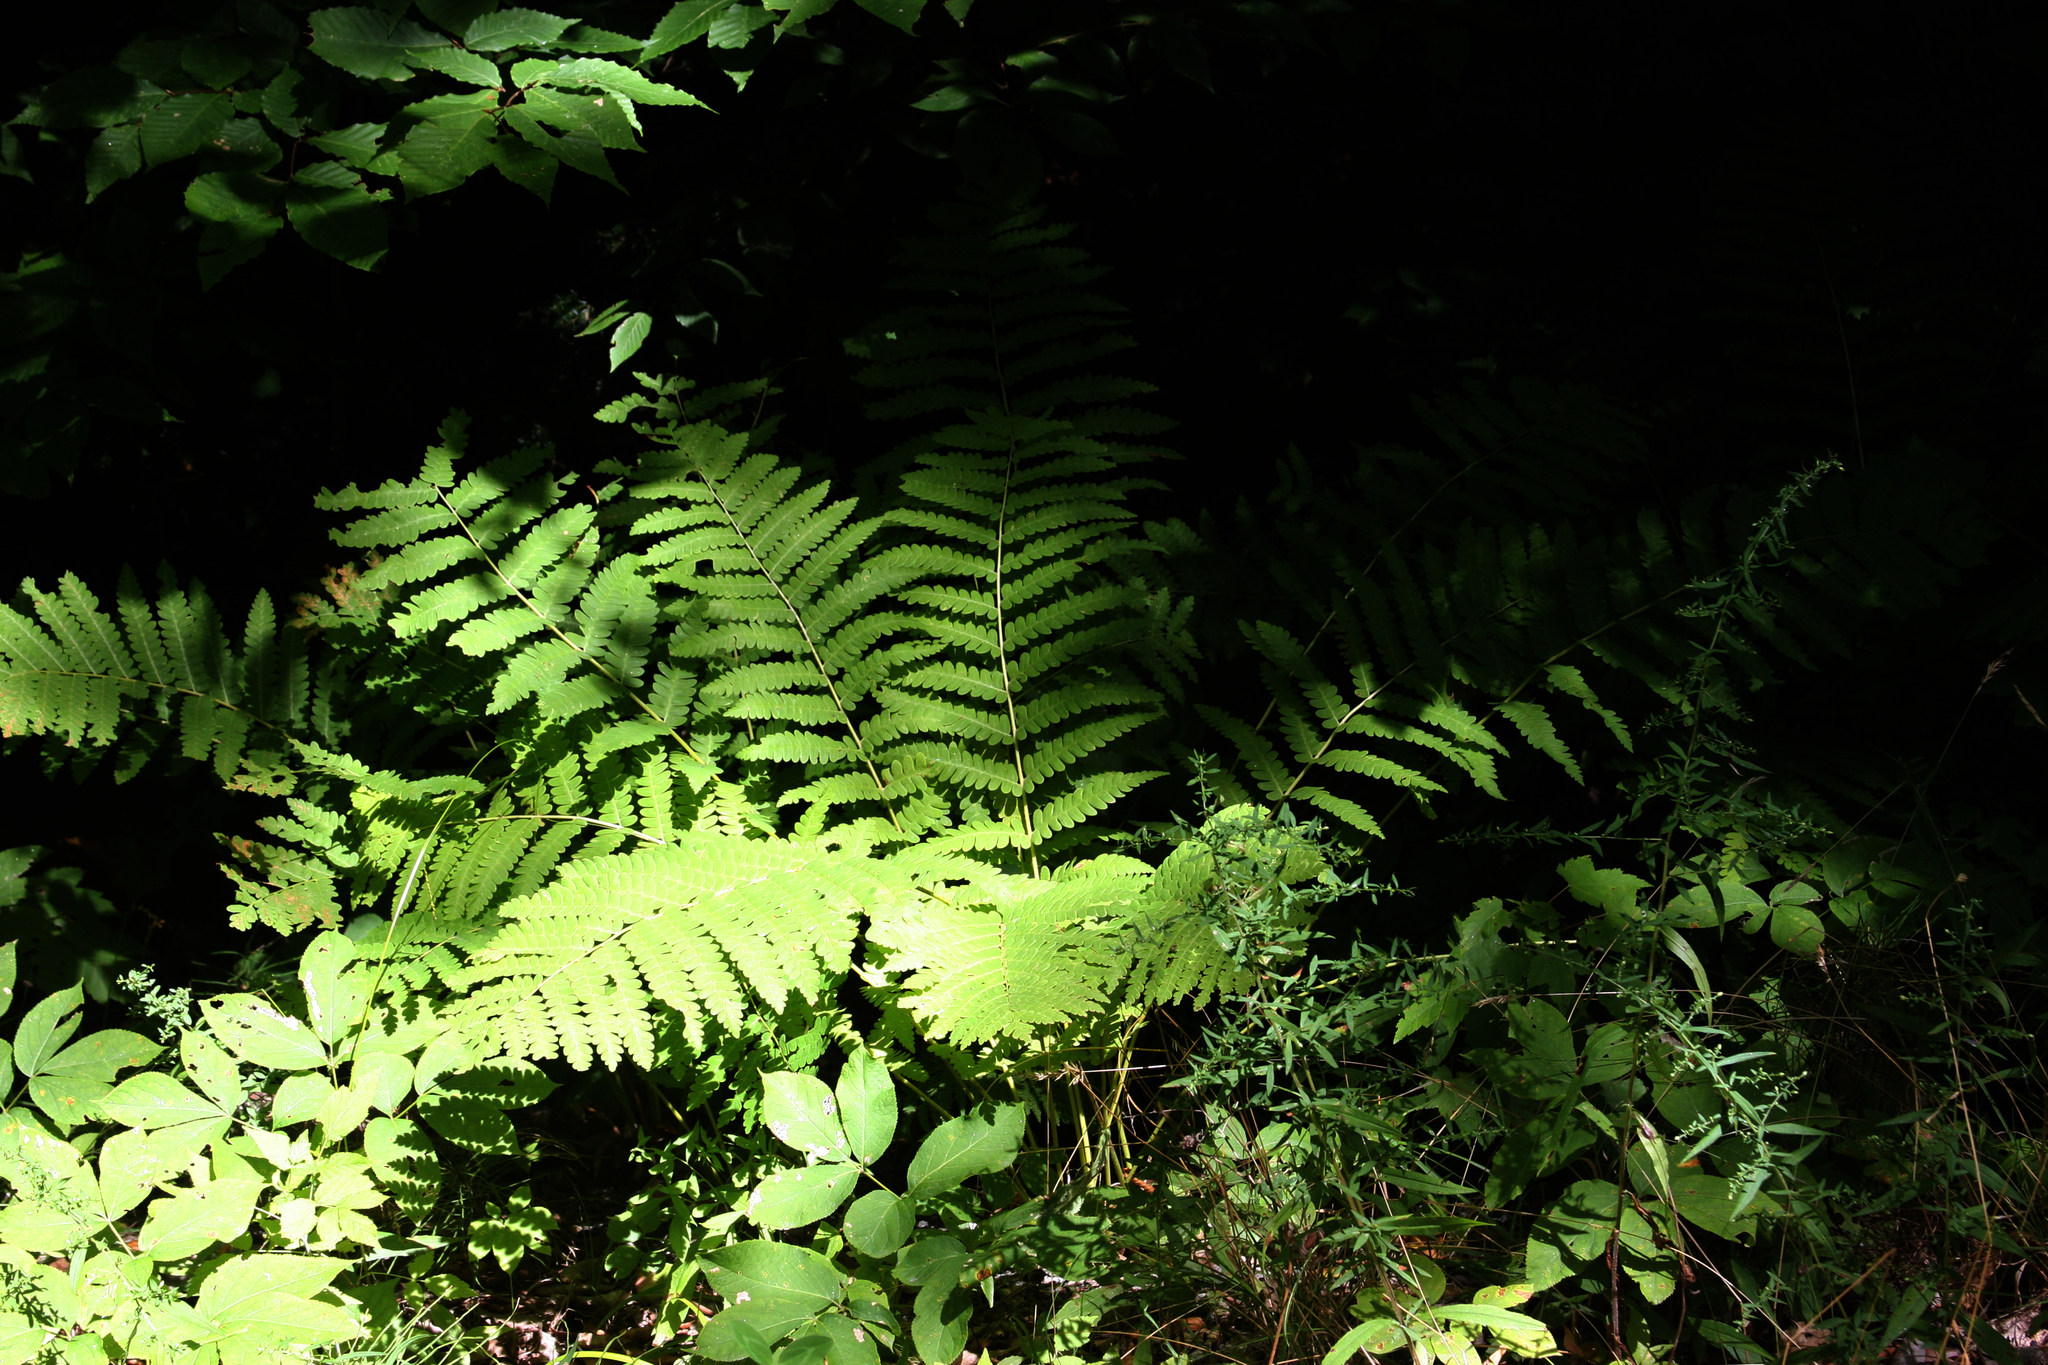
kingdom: Plantae
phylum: Tracheophyta
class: Polypodiopsida
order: Osmundales
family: Osmundaceae
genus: Claytosmunda
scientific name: Claytosmunda claytoniana
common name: Clayton's fern
